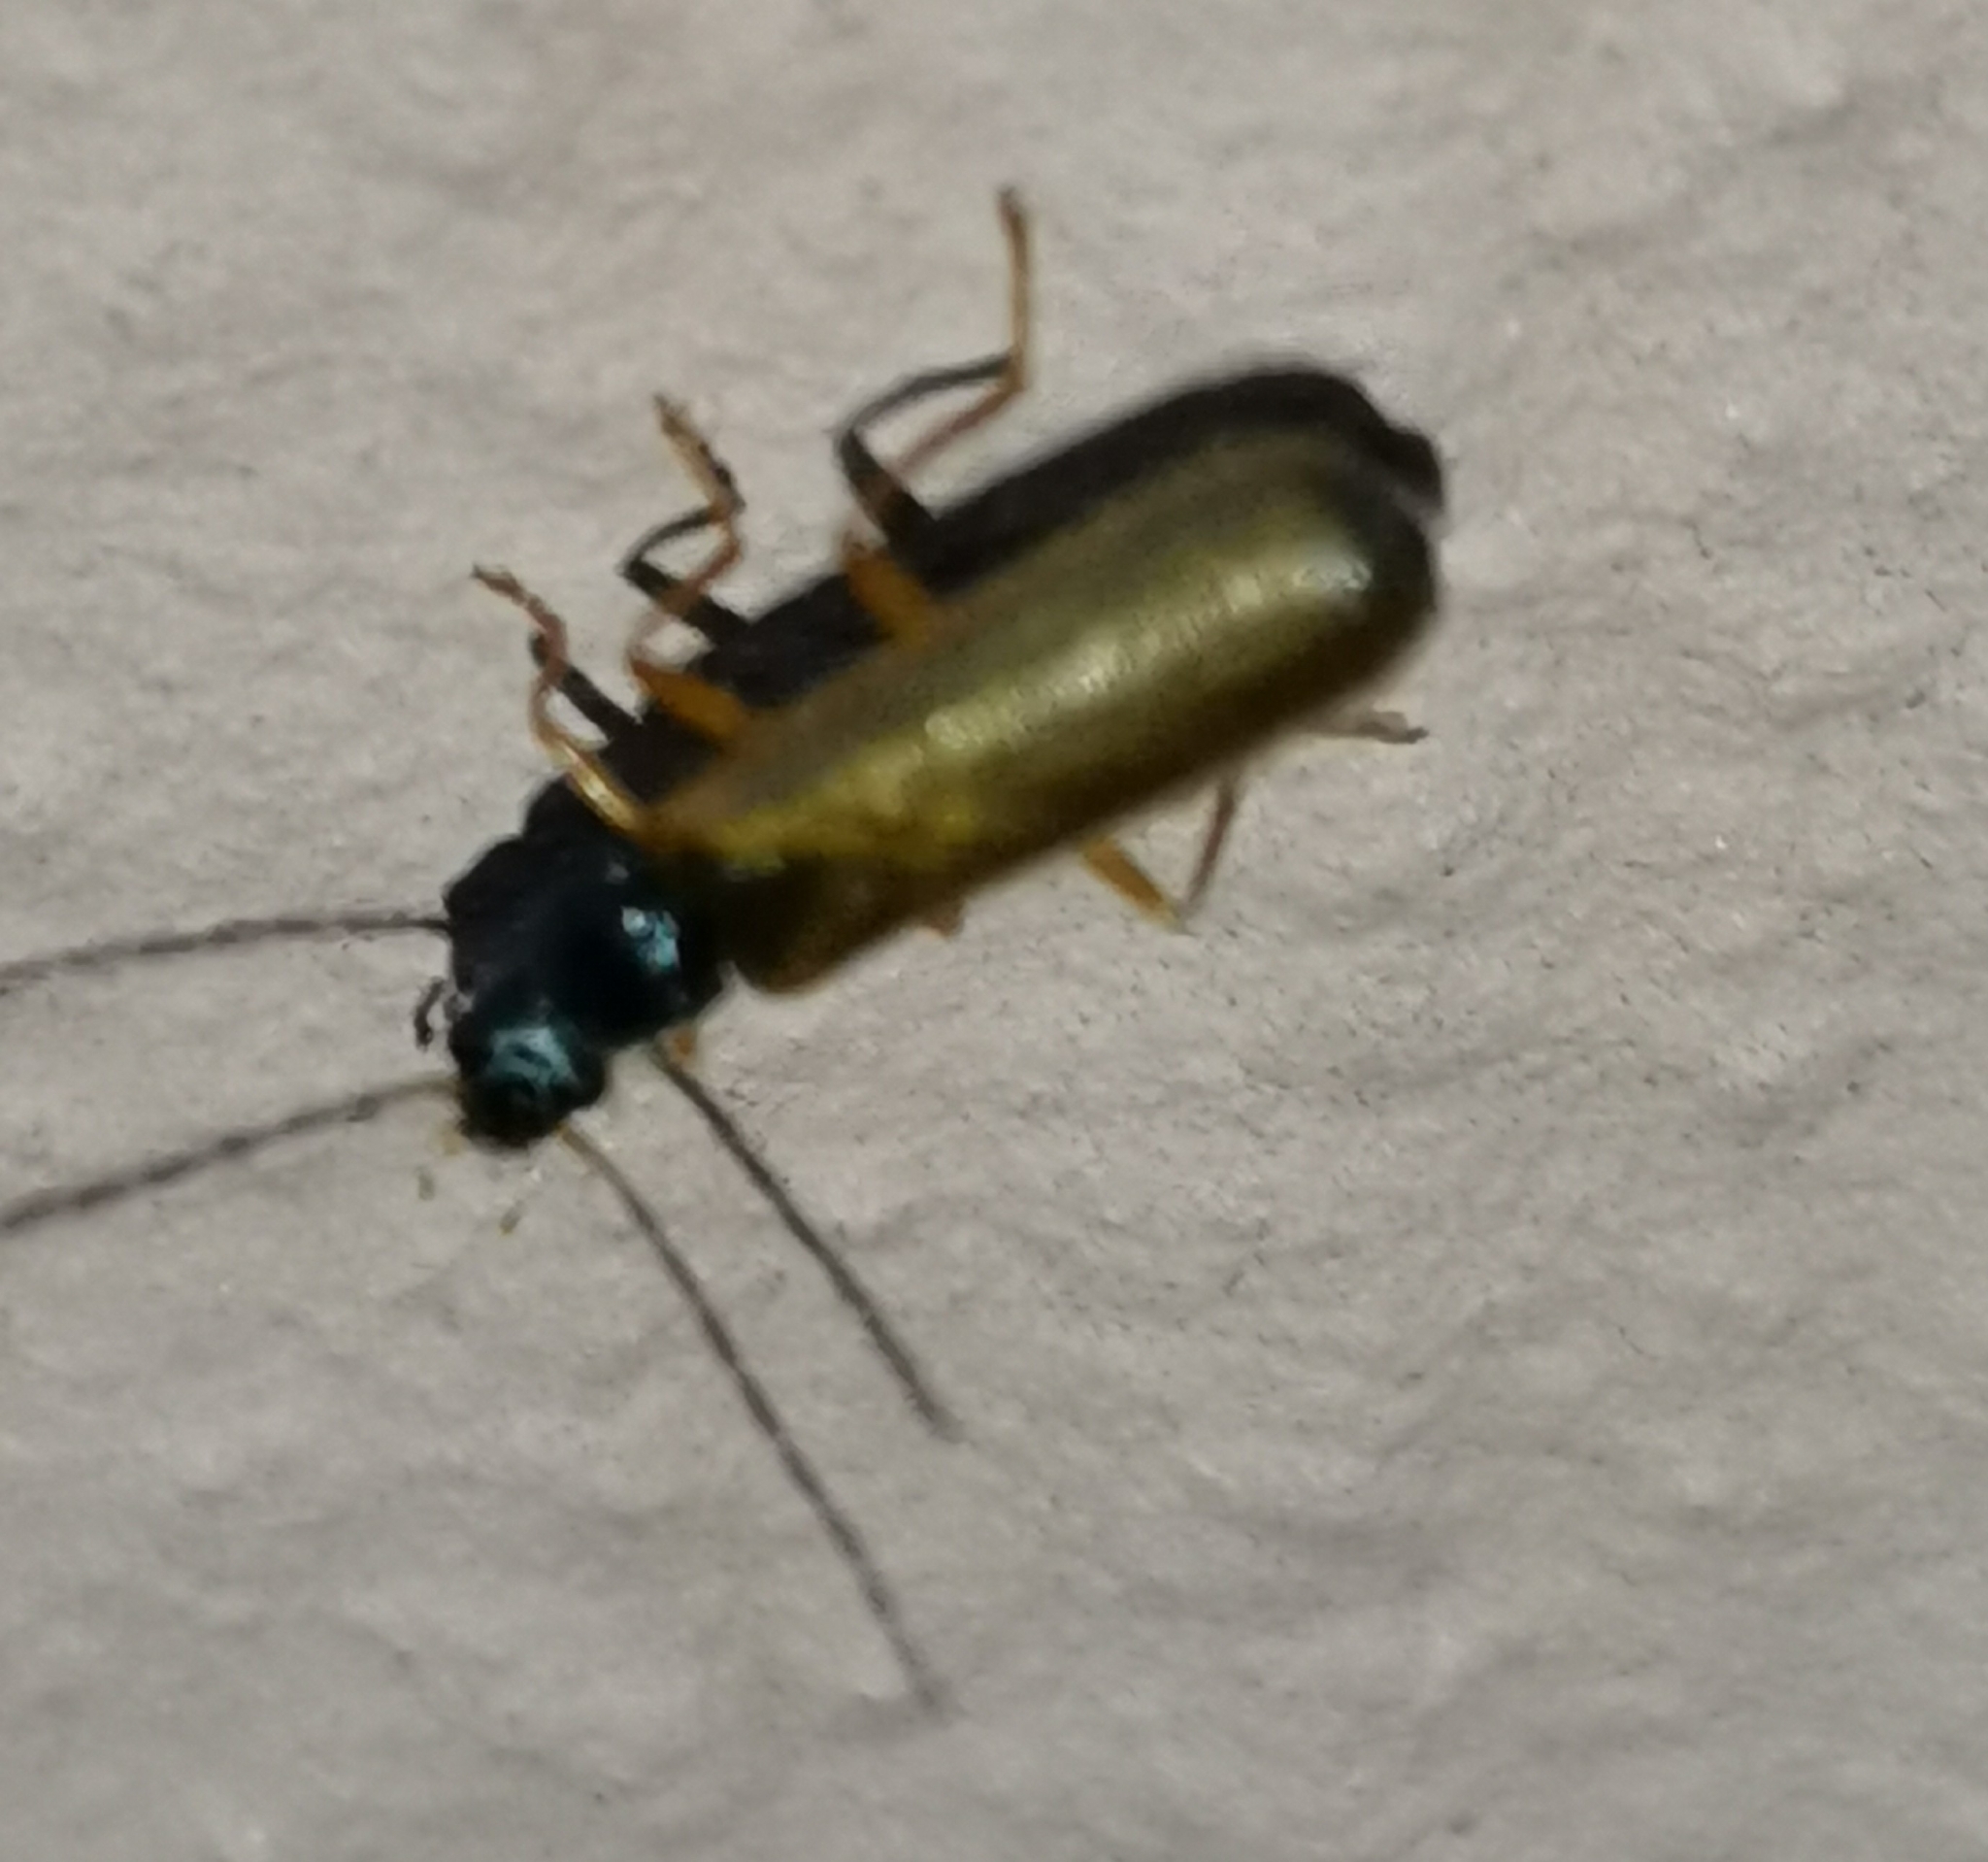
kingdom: Animalia
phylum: Arthropoda
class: Insecta
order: Coleoptera
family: Cantharidae
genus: Rhagonycha
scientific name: Rhagonycha lignosa
